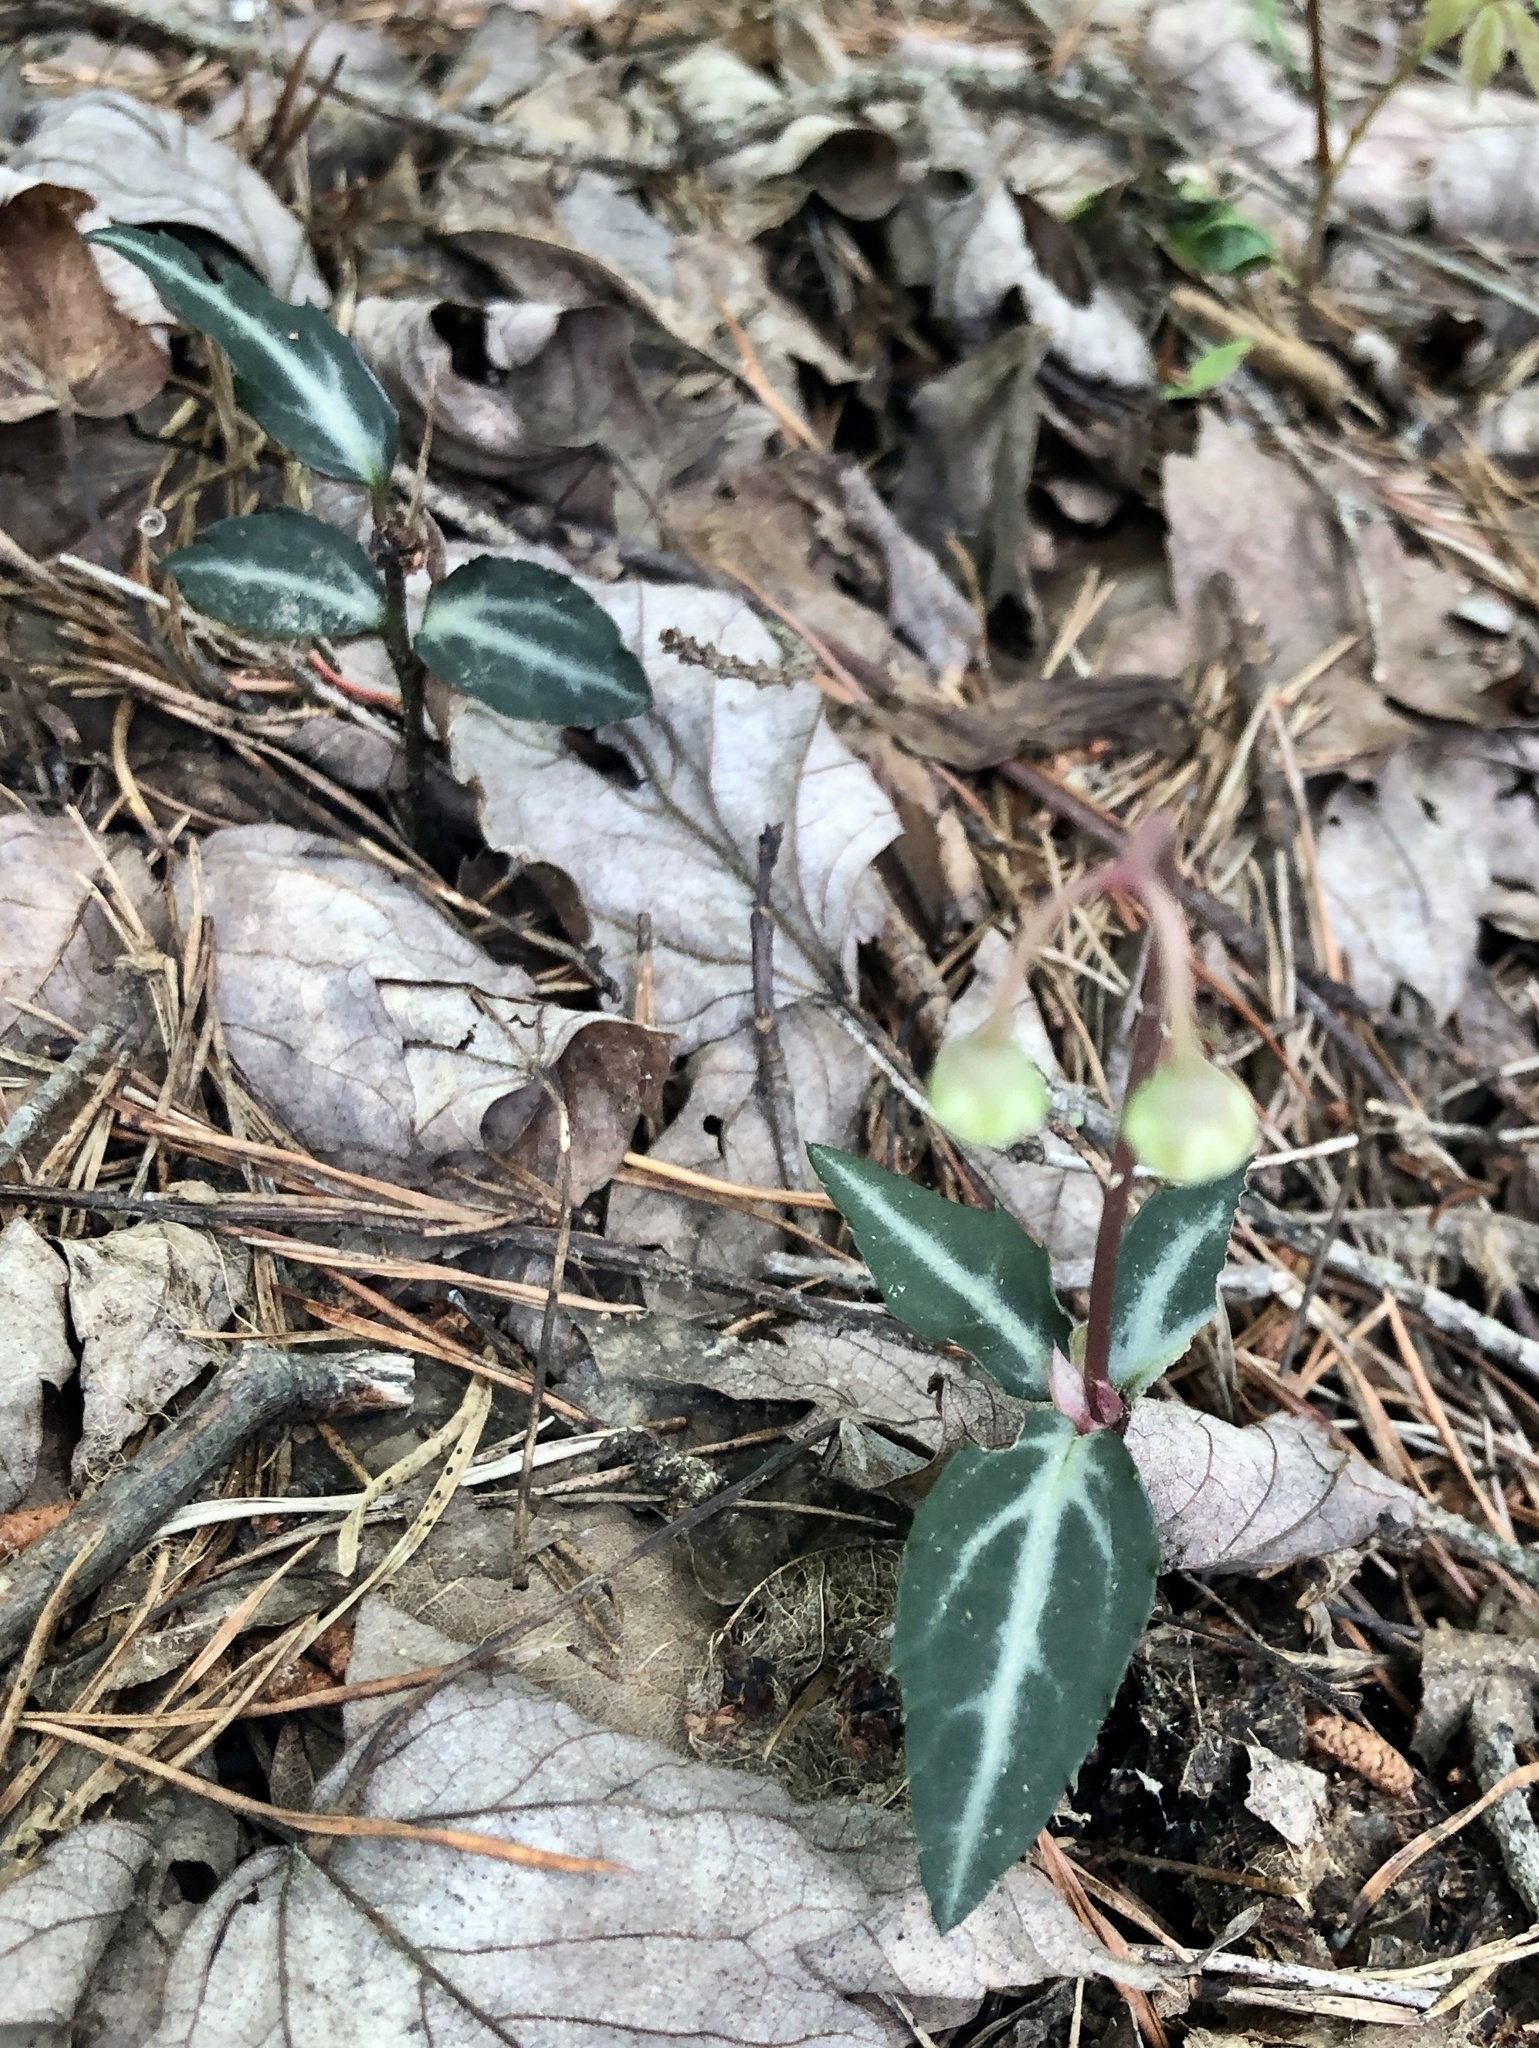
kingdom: Plantae
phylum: Tracheophyta
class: Magnoliopsida
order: Ericales
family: Ericaceae
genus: Chimaphila
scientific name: Chimaphila maculata
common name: Spotted pipsissewa
